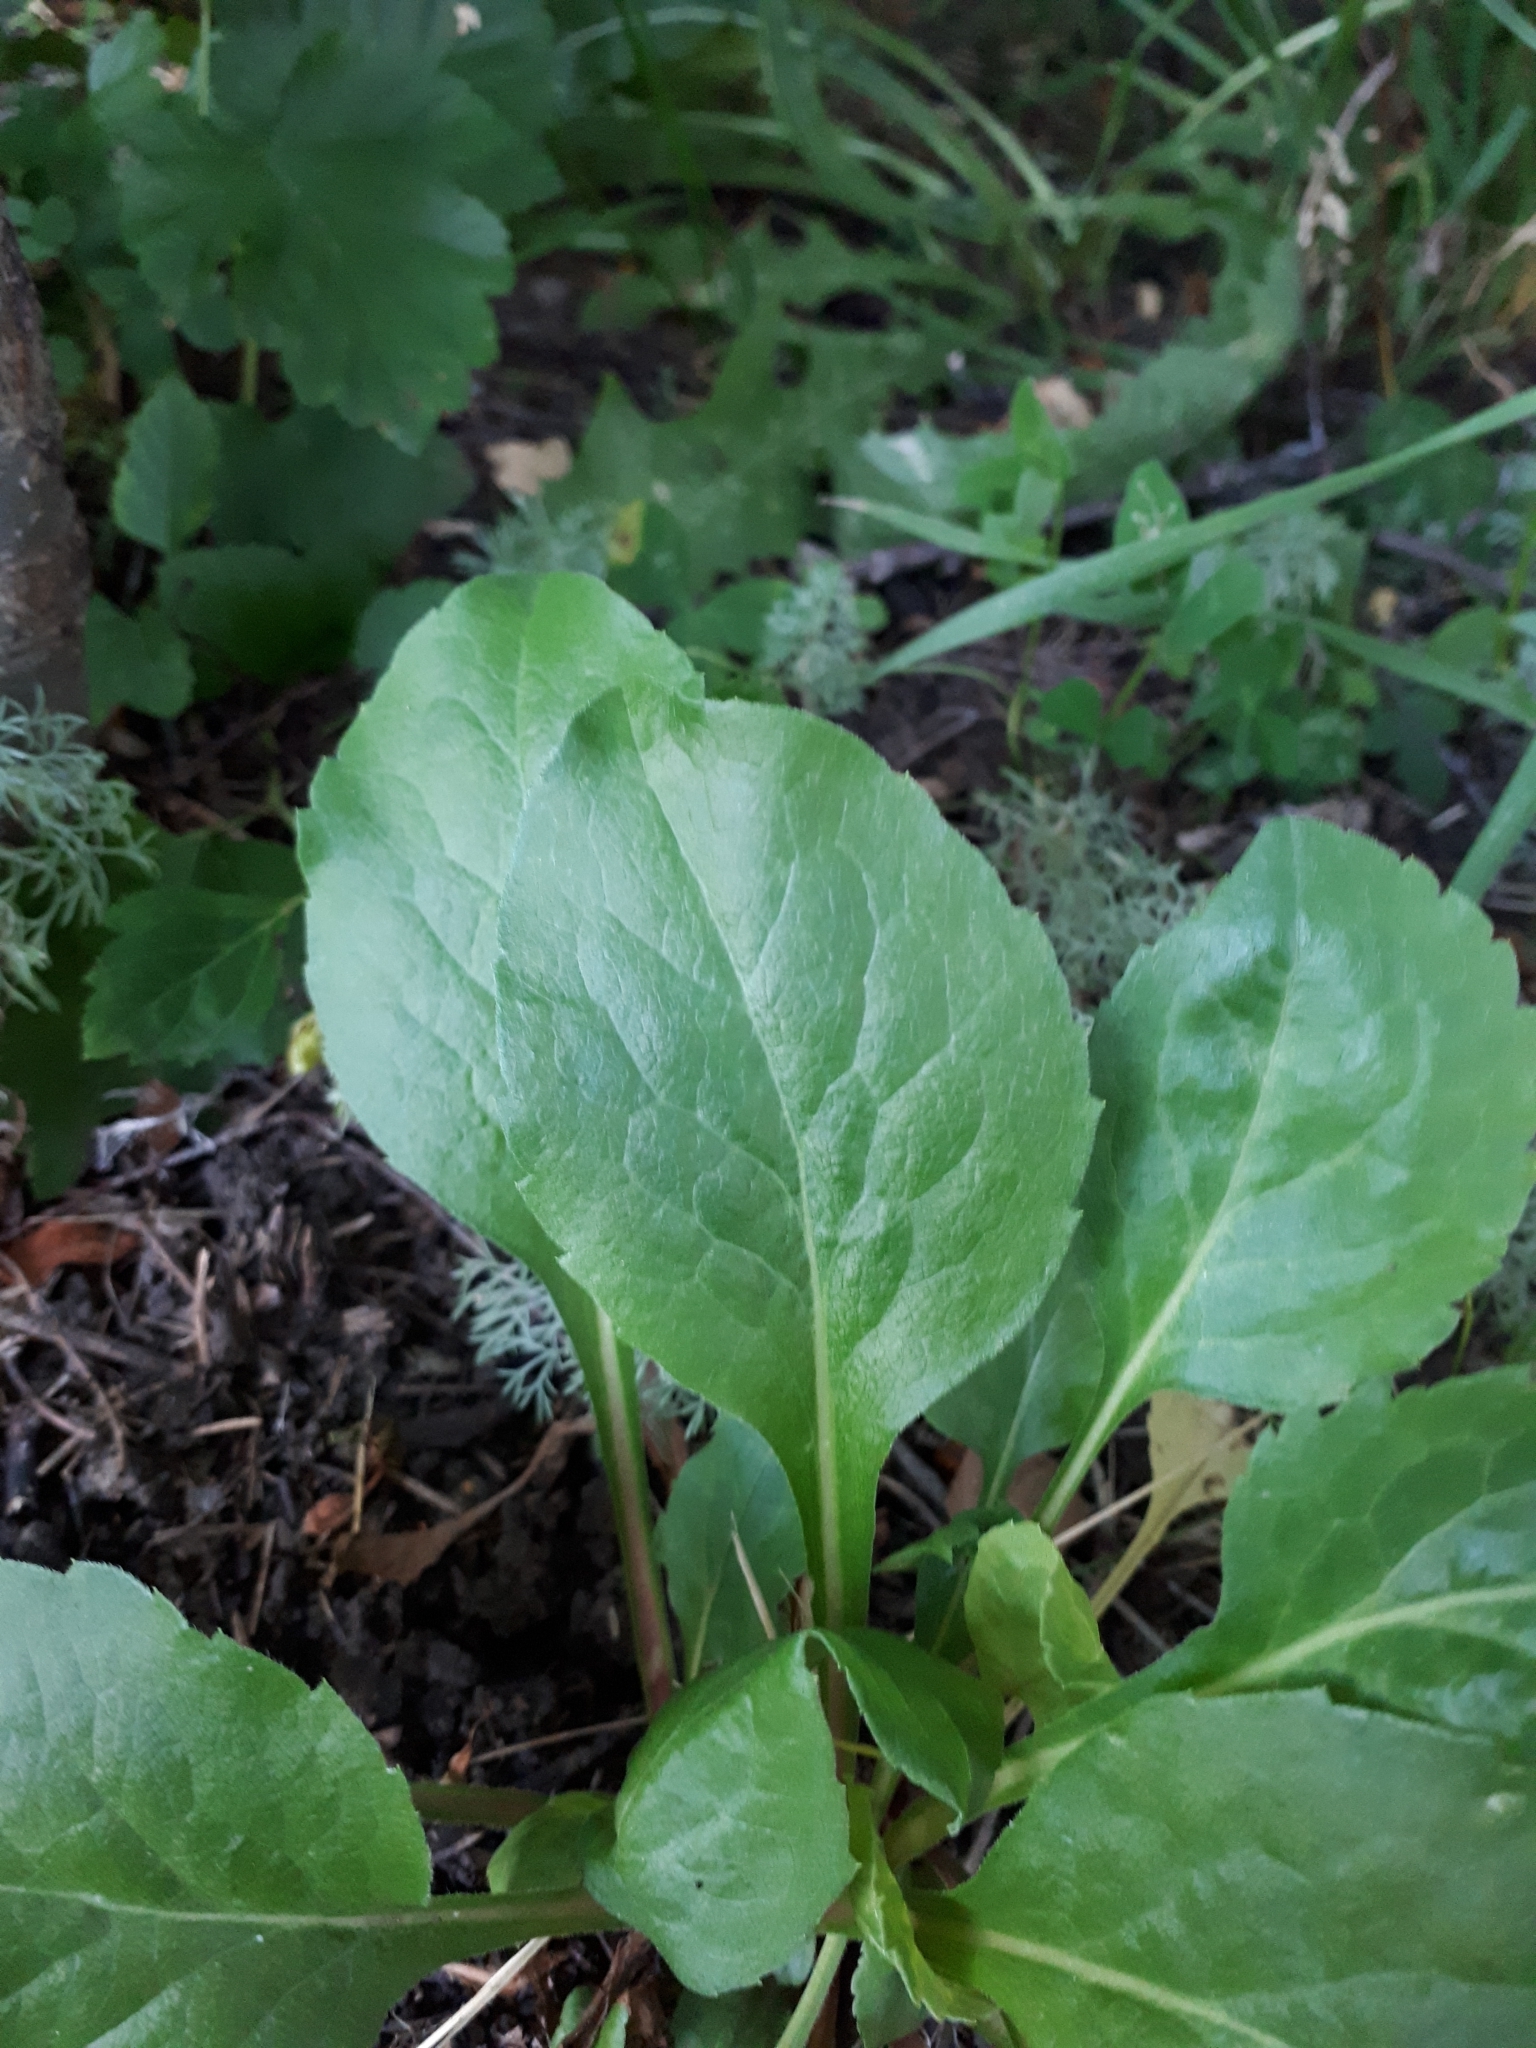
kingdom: Plantae
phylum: Tracheophyta
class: Magnoliopsida
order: Asterales
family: Asteraceae
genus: Solidago
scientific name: Solidago virgaurea
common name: Goldenrod
